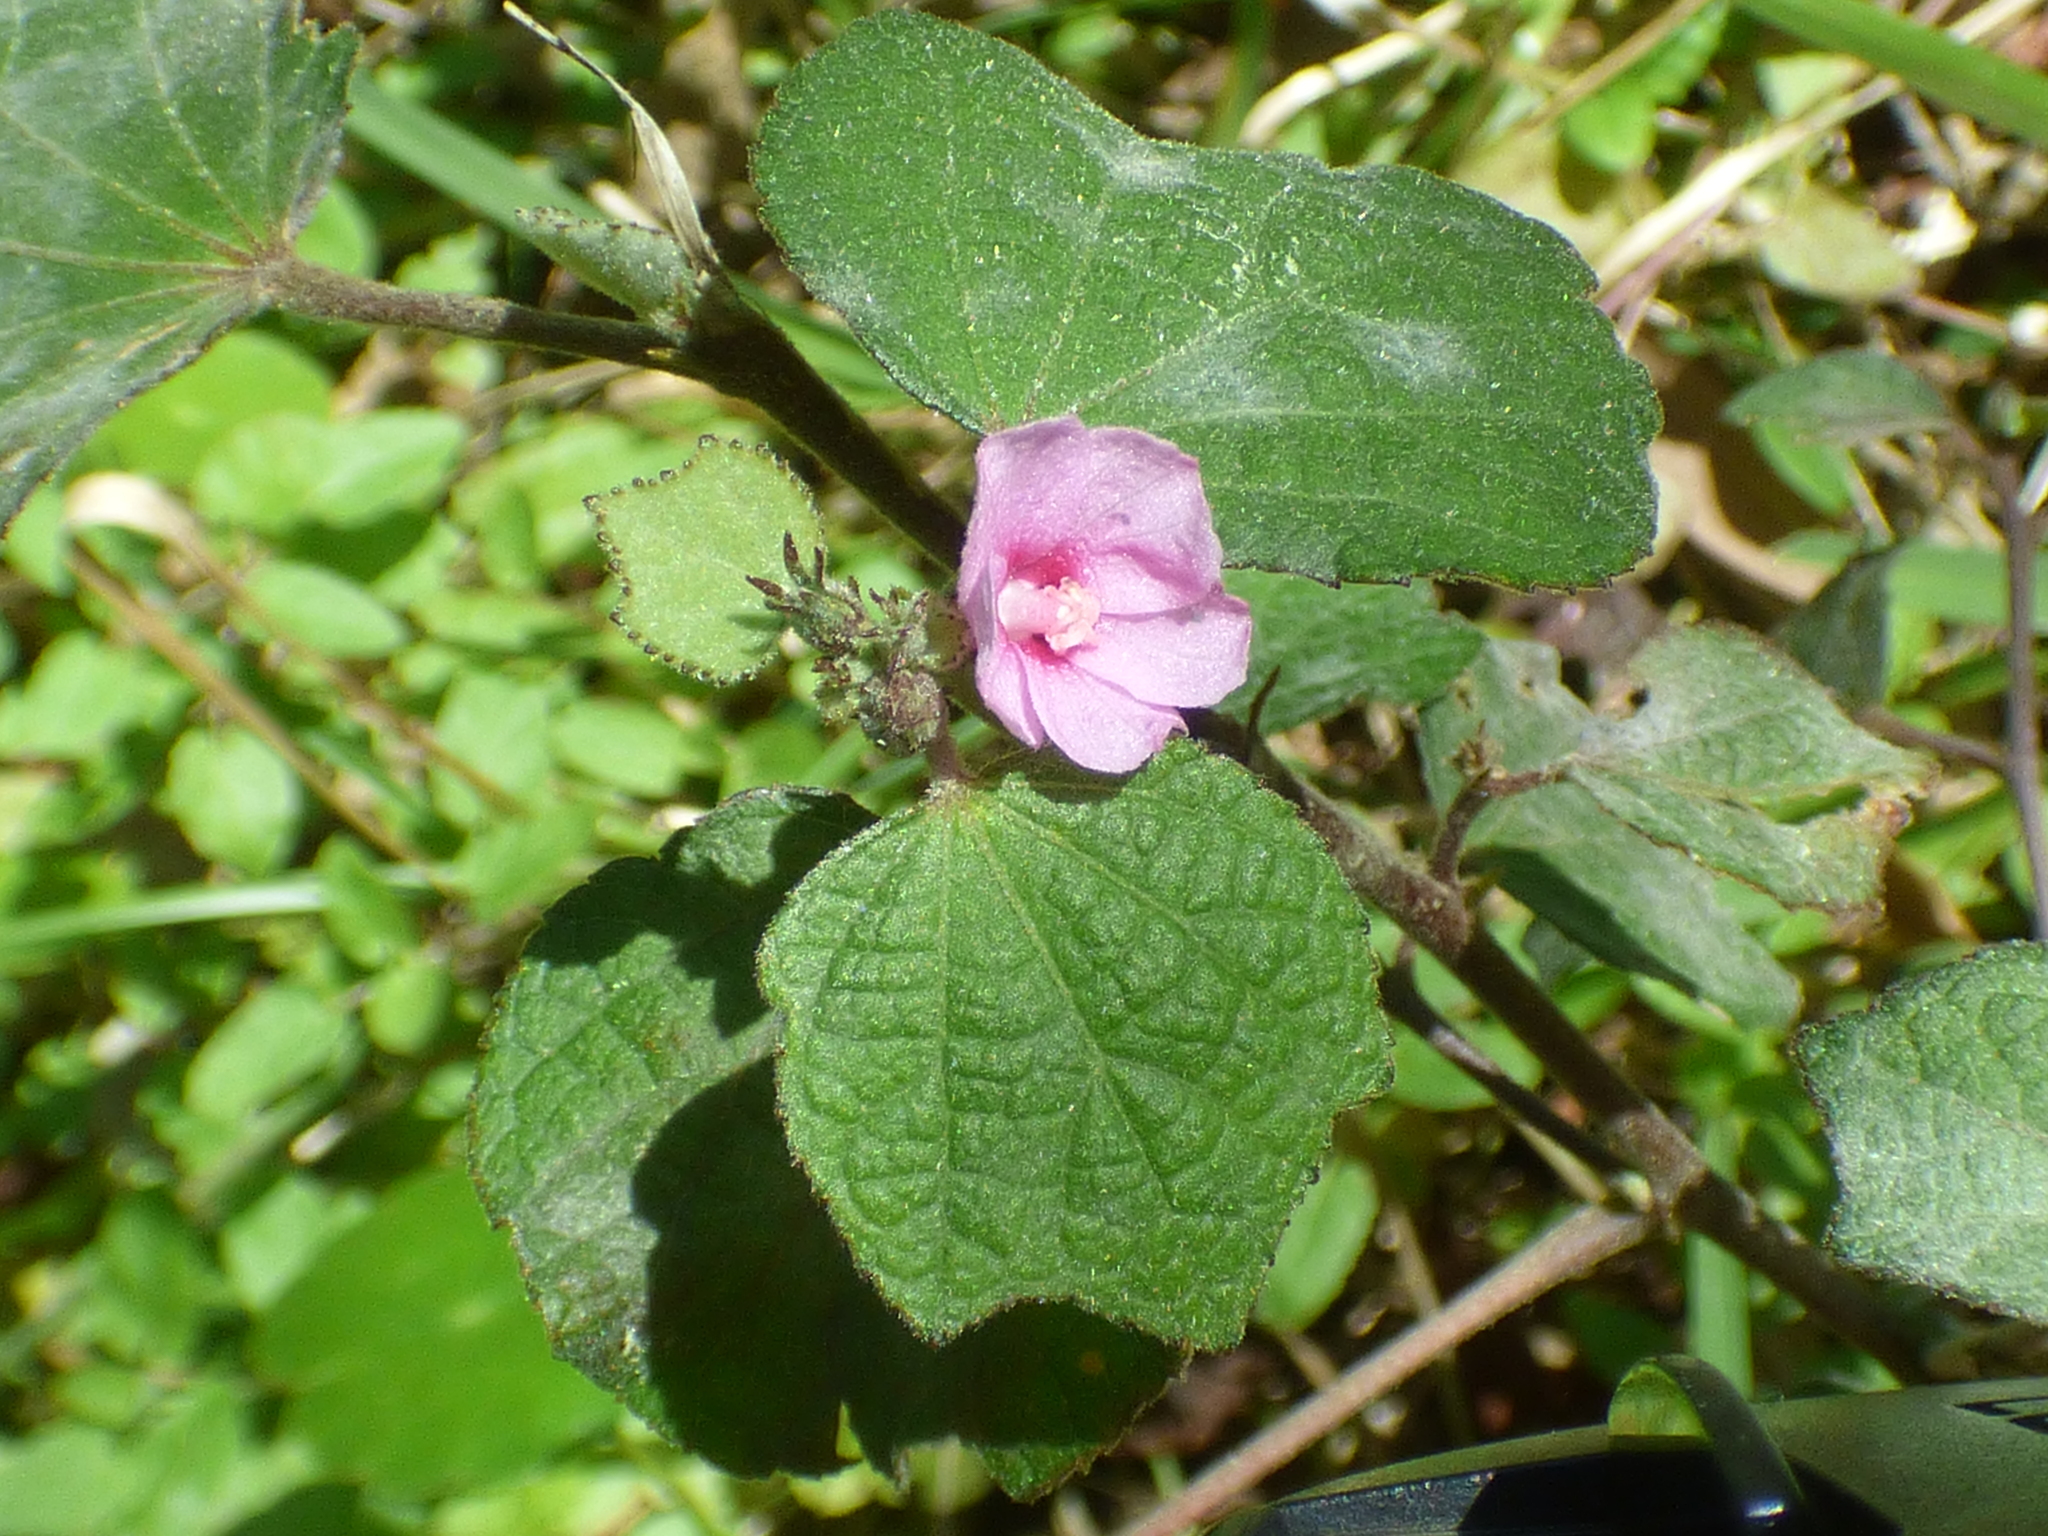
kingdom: Plantae
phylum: Tracheophyta
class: Magnoliopsida
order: Malvales
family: Malvaceae
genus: Urena
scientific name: Urena lobata
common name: Caesarweed
